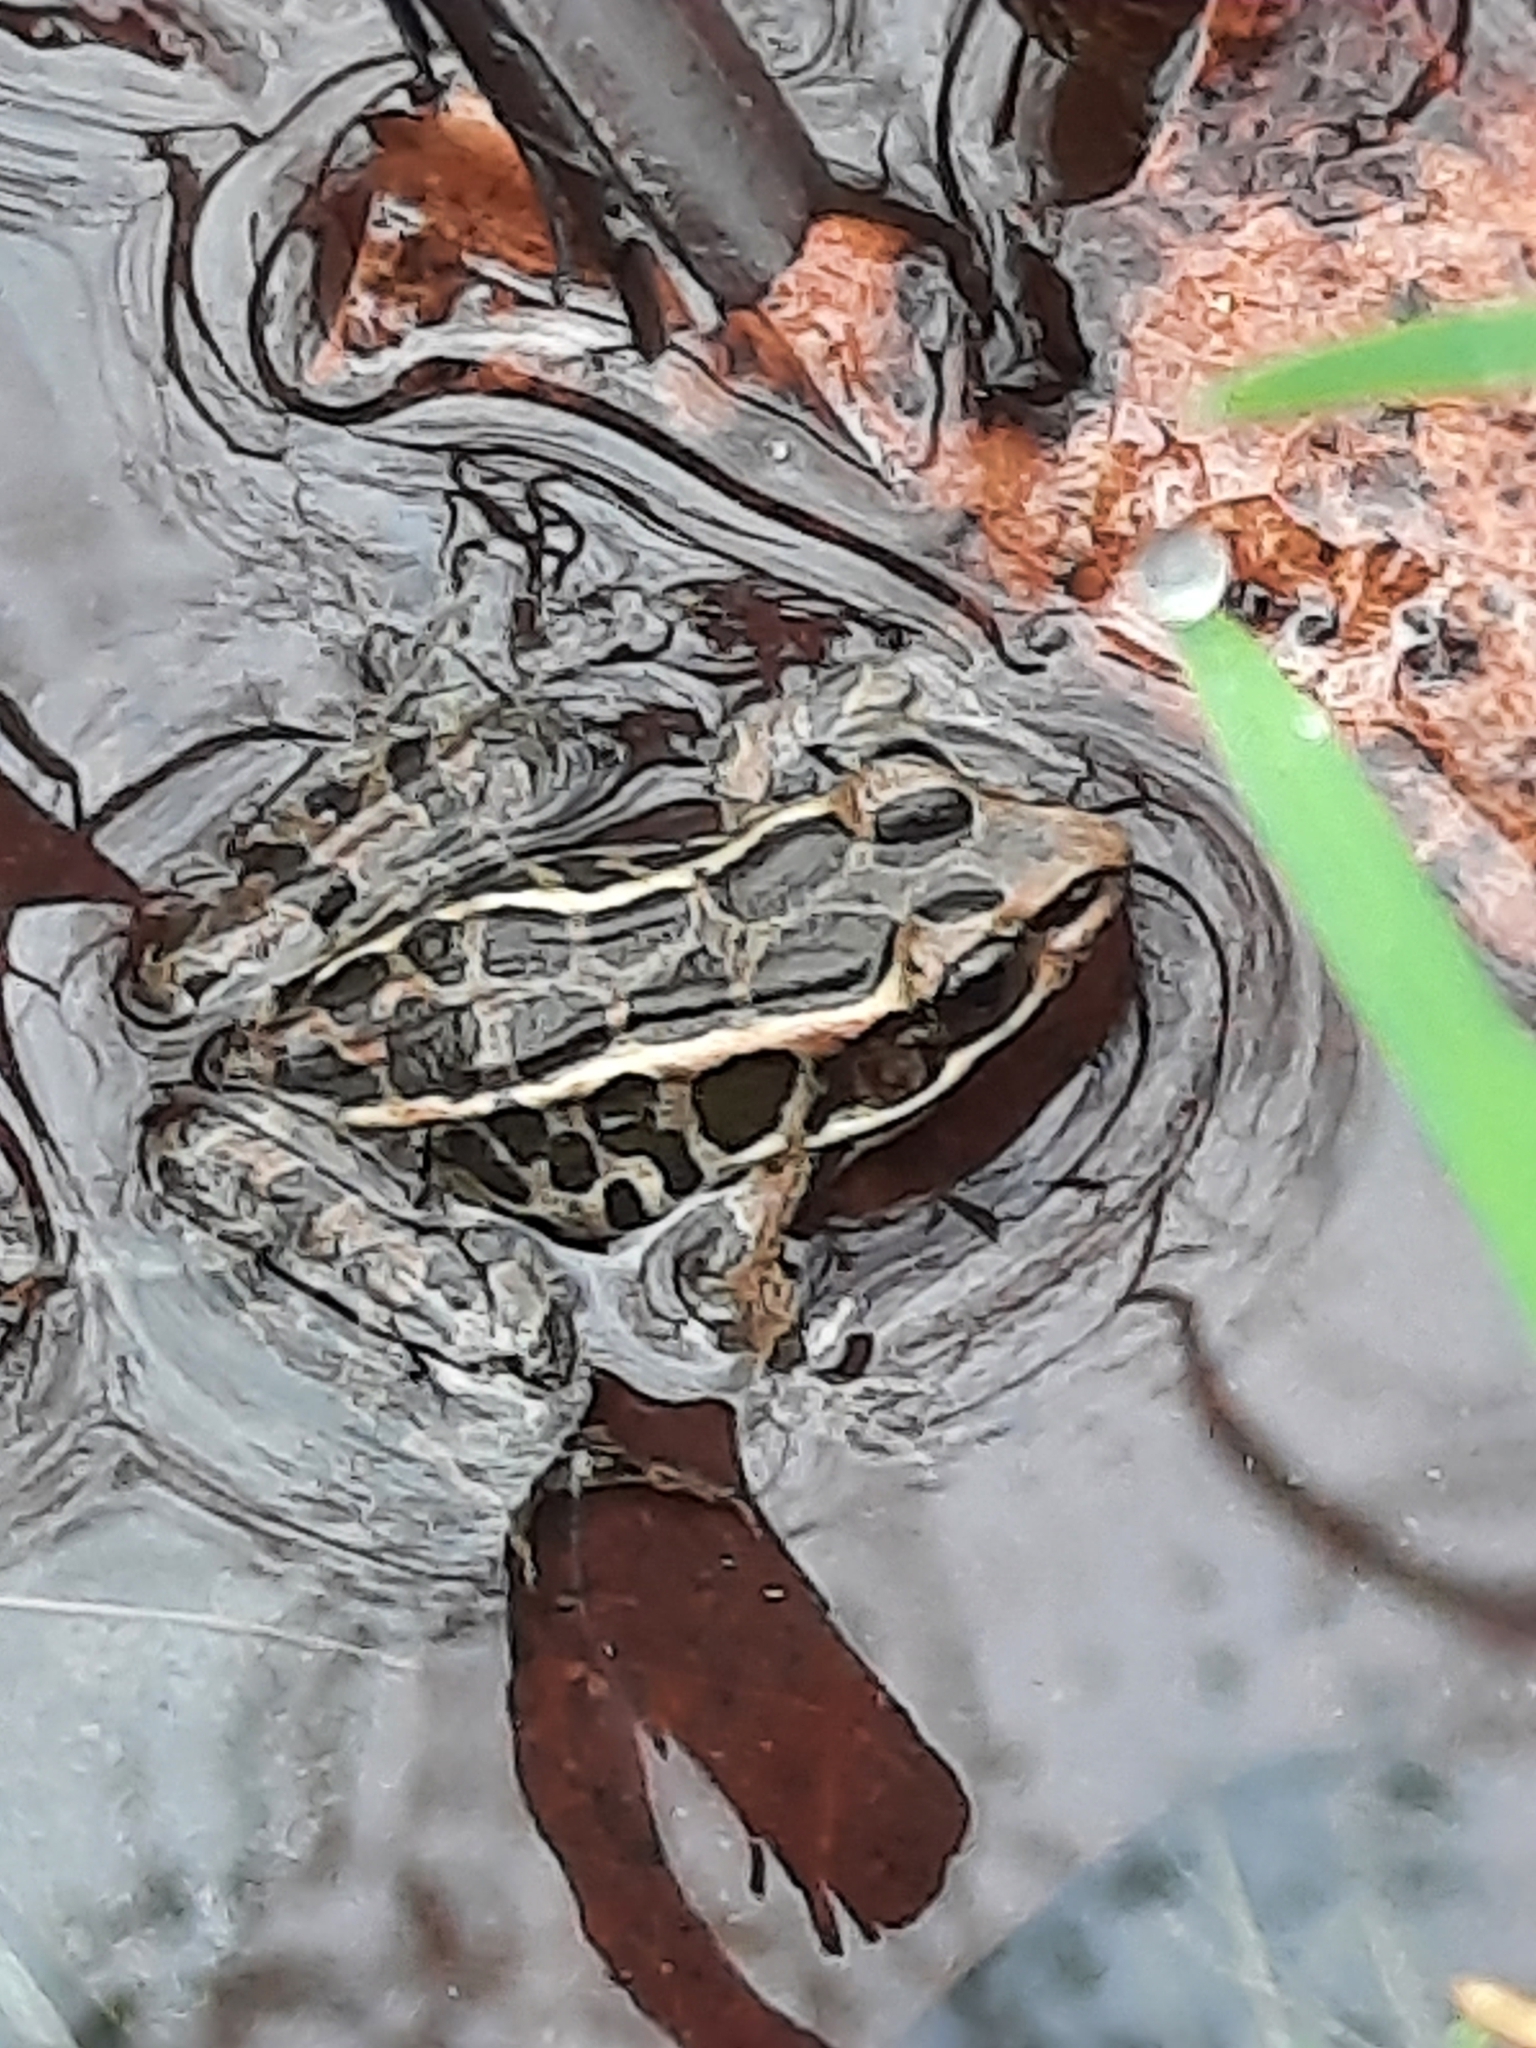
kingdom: Animalia
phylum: Chordata
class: Amphibia
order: Anura
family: Ranidae
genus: Lithobates
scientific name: Lithobates palustris
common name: Pickerel frog
